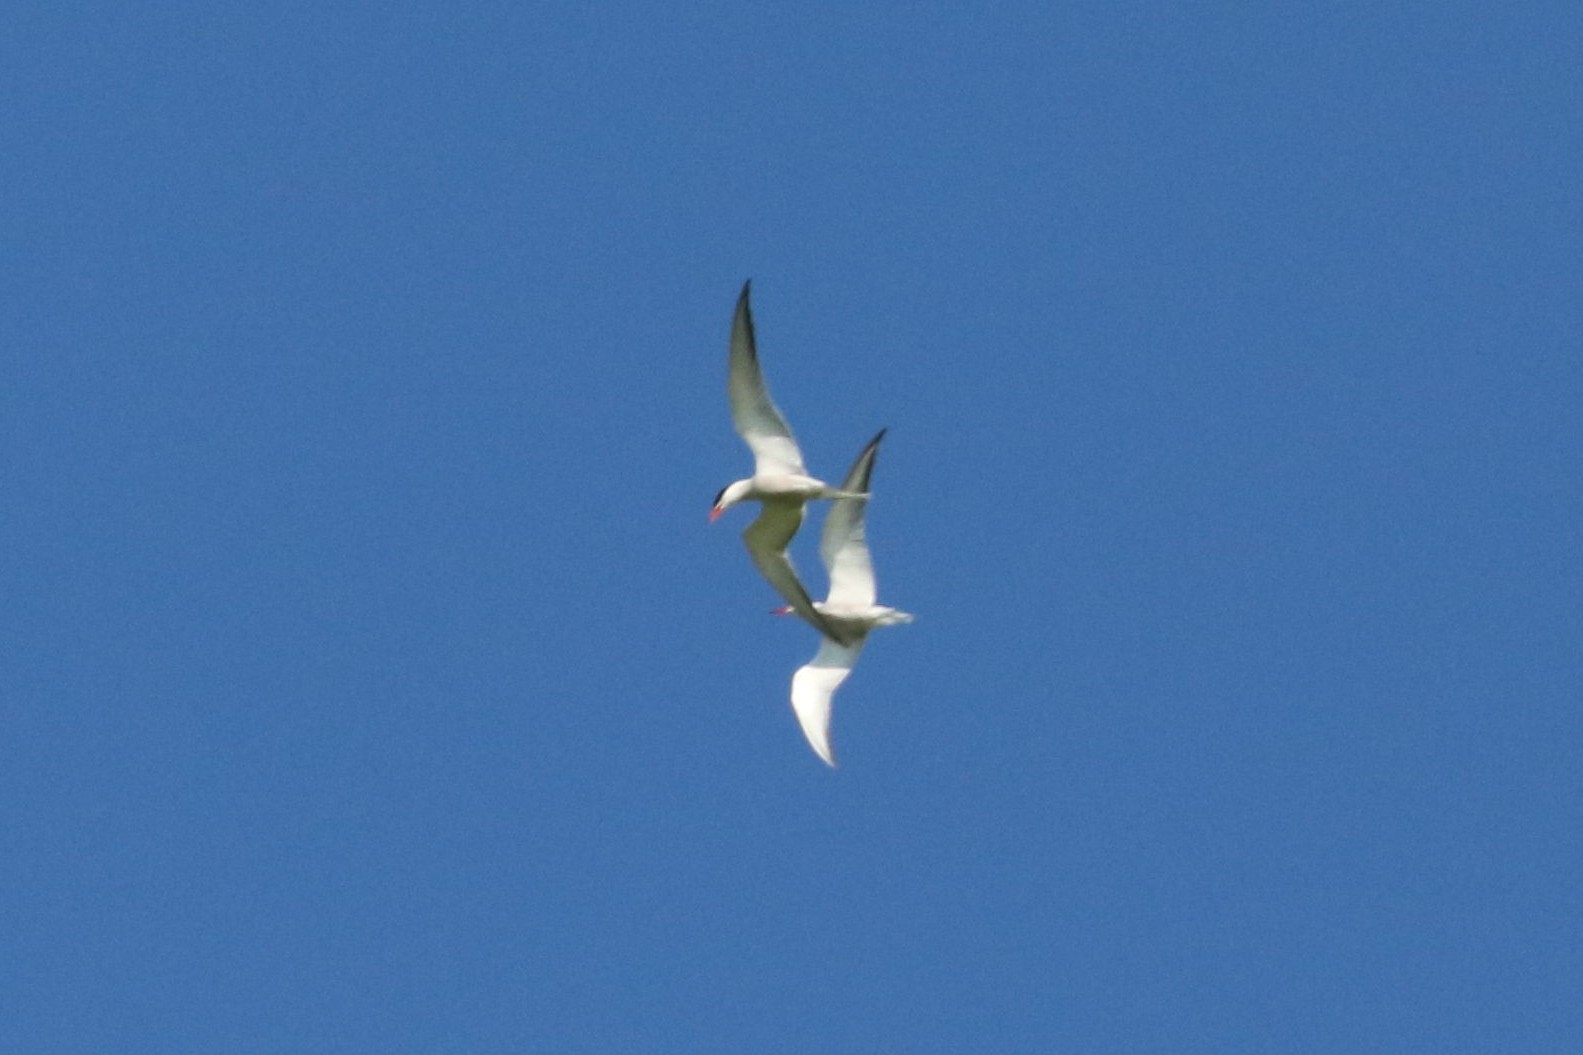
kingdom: Animalia
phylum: Chordata
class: Aves
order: Charadriiformes
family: Laridae
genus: Sterna
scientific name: Sterna hirundo
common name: Common tern
